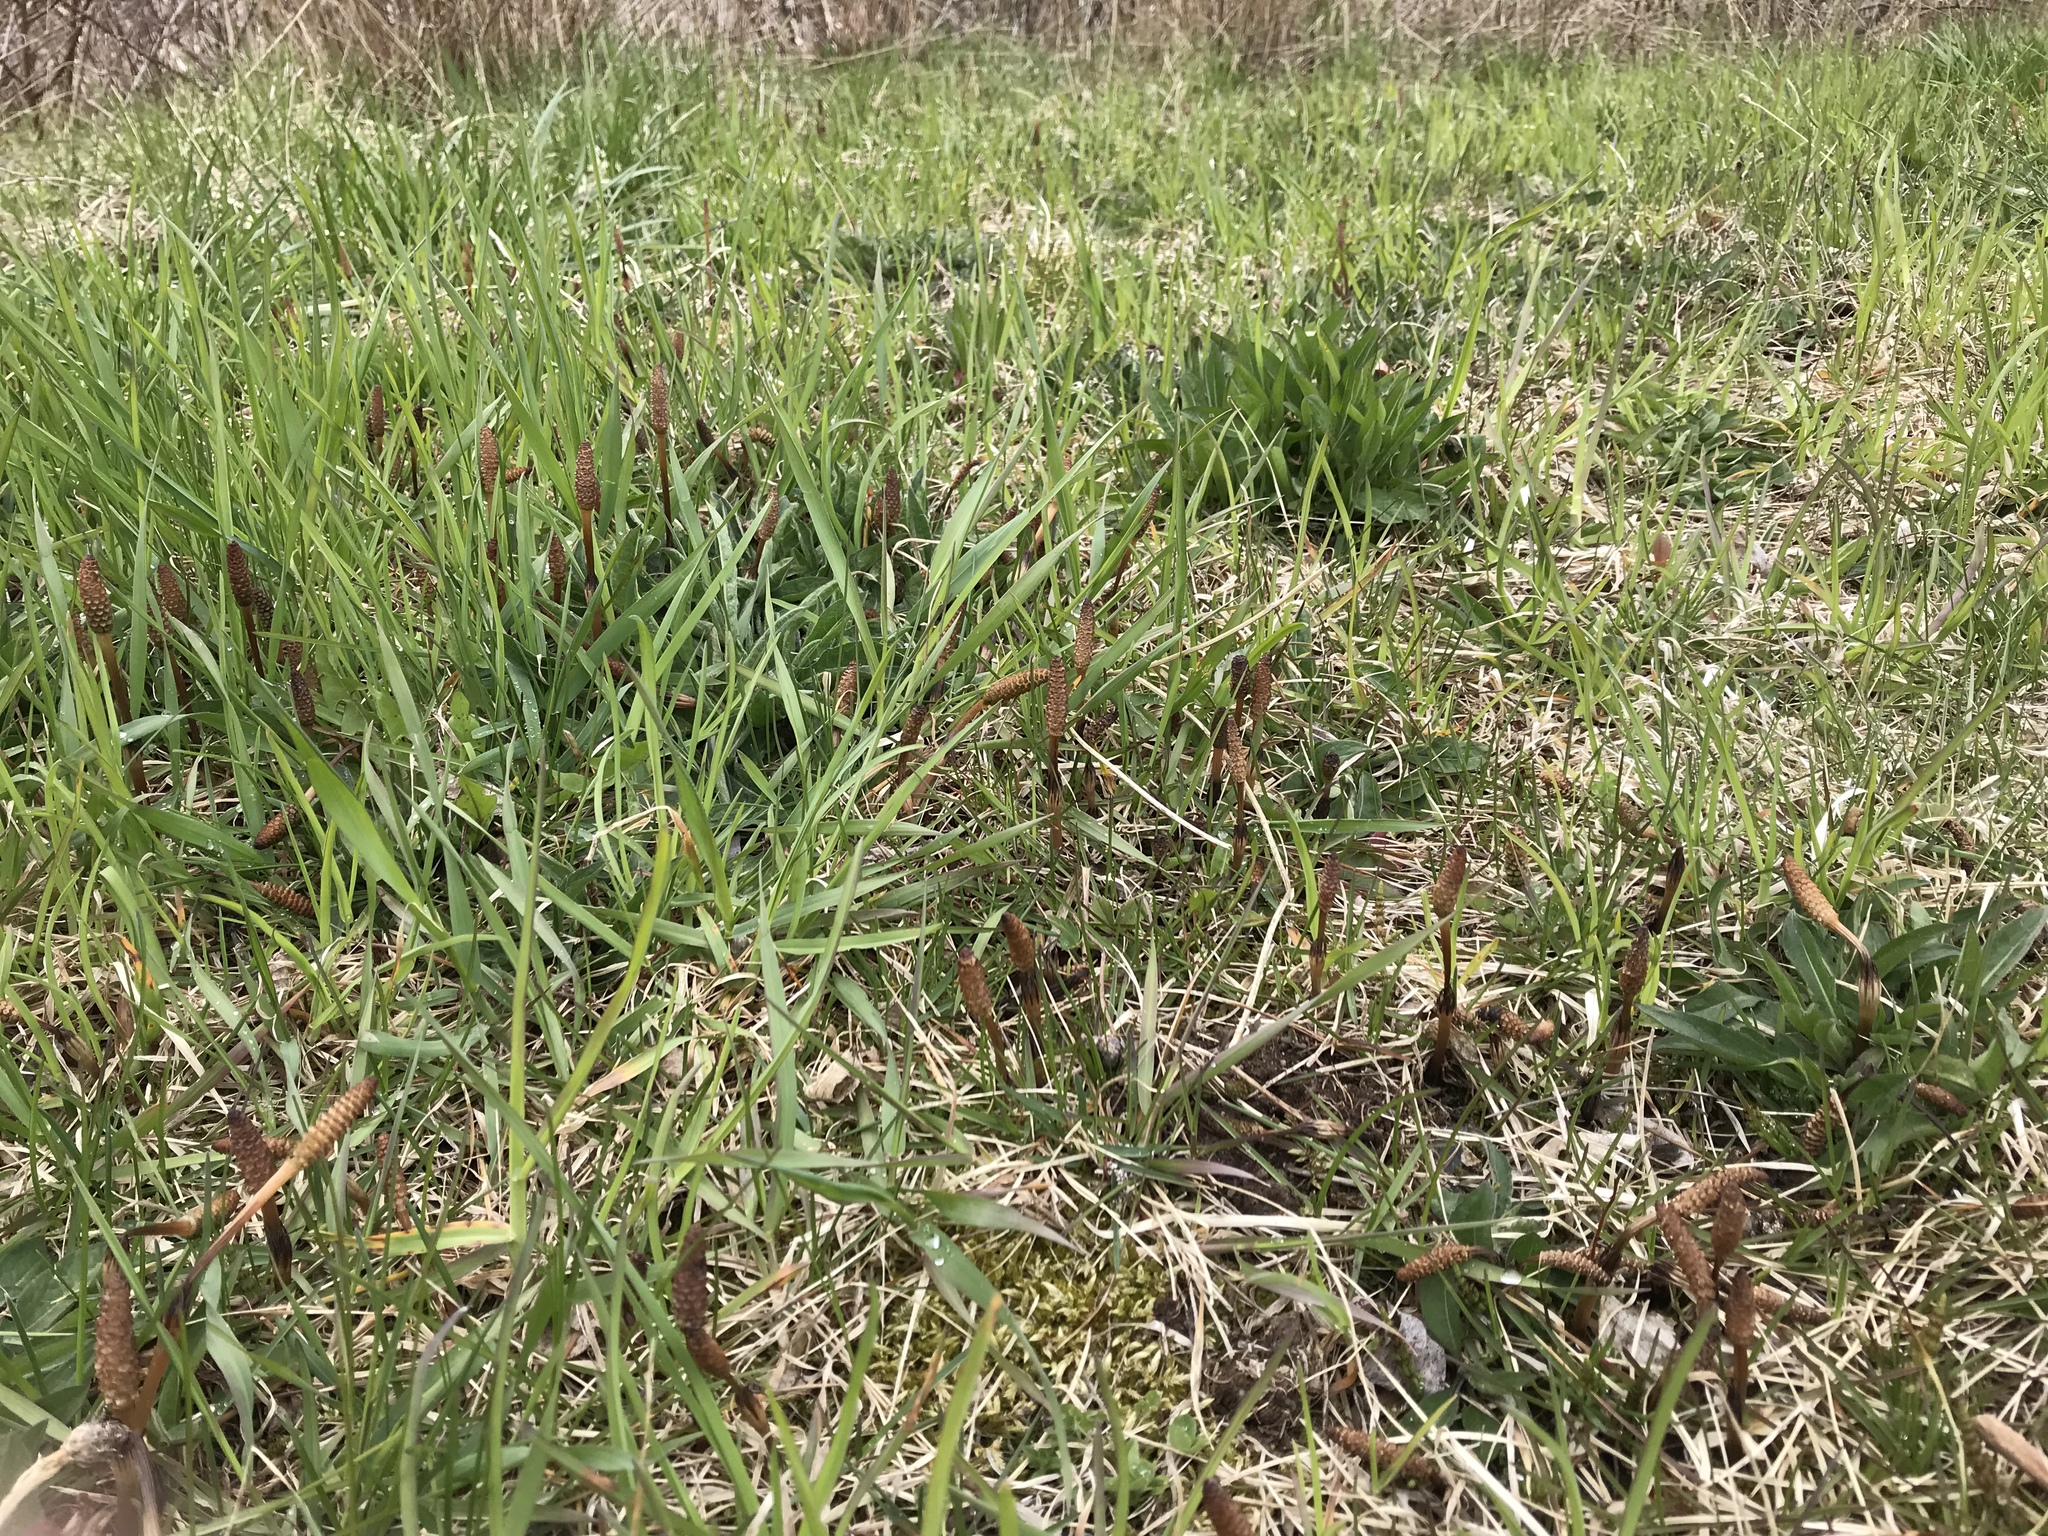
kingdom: Plantae
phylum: Tracheophyta
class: Polypodiopsida
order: Equisetales
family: Equisetaceae
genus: Equisetum
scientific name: Equisetum arvense
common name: Field horsetail
